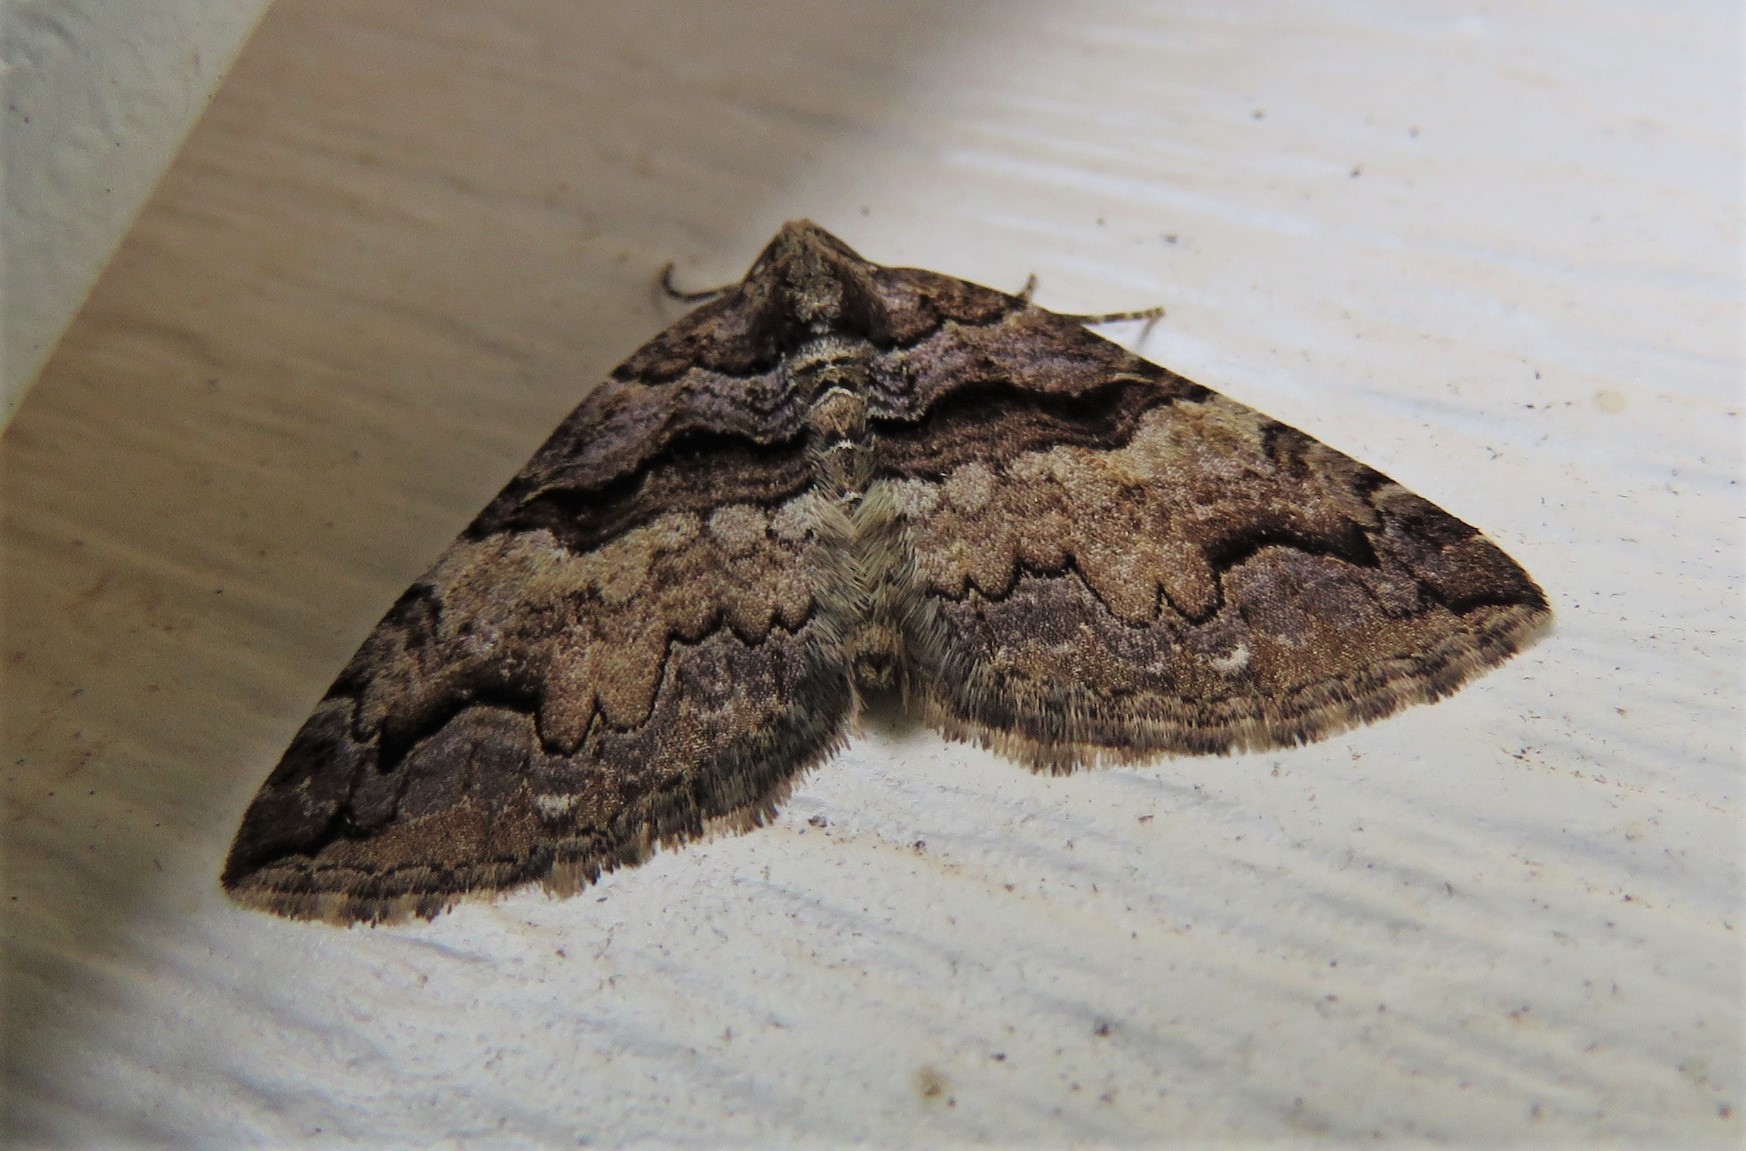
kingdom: Animalia
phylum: Arthropoda
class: Insecta
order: Lepidoptera
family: Geometridae
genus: Anticlea
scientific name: Anticlea vasiliata
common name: Variable carpet
